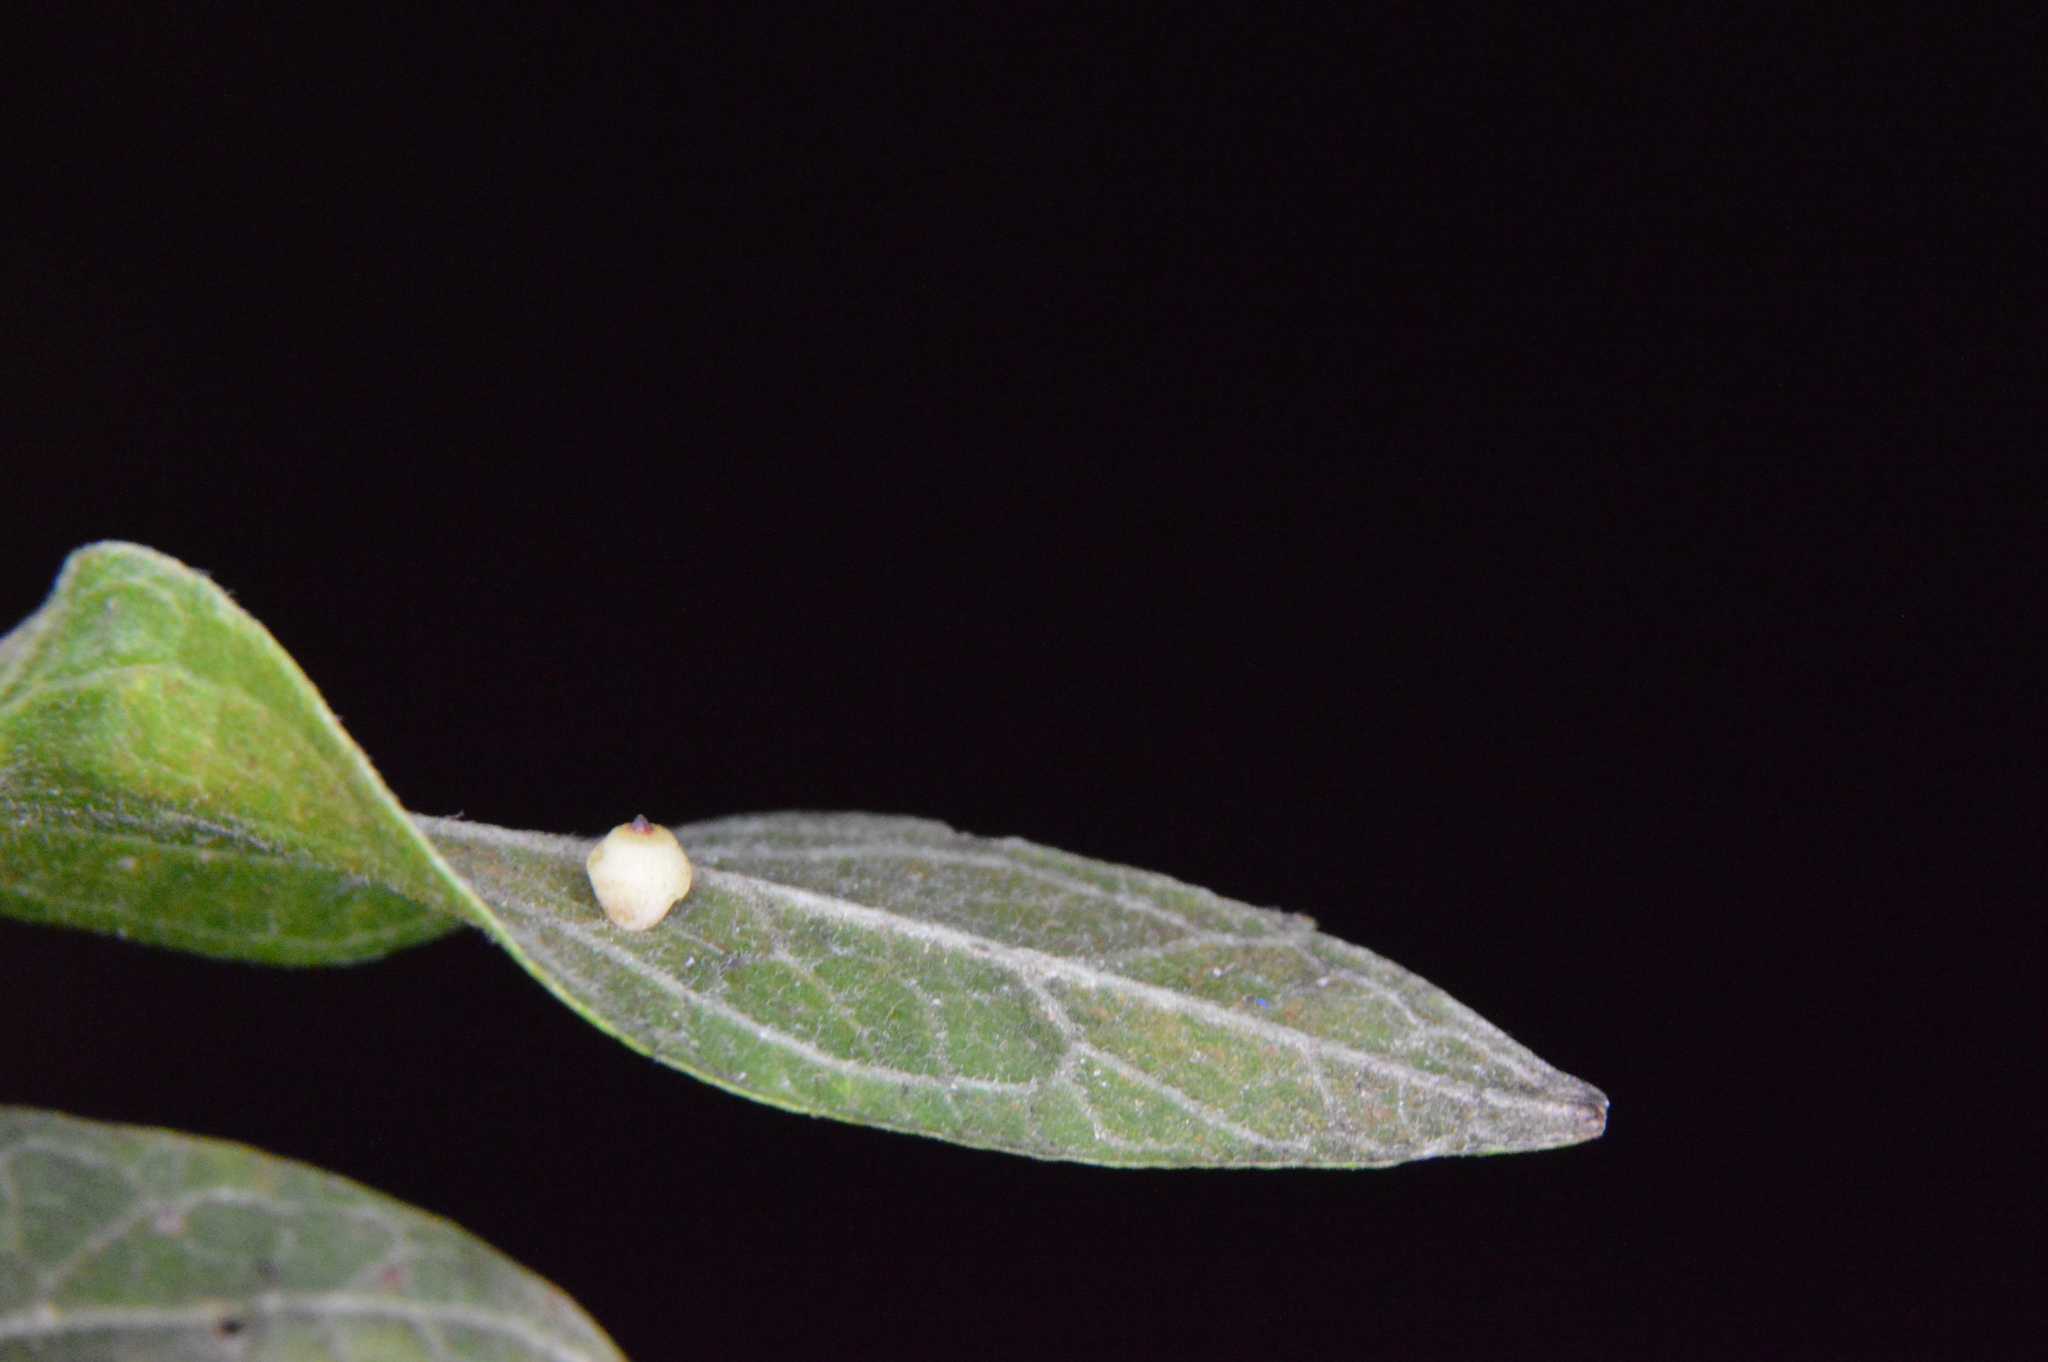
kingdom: Animalia
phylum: Arthropoda
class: Insecta
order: Diptera
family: Cecidomyiidae
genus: Celticecis
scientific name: Celticecis globosa
